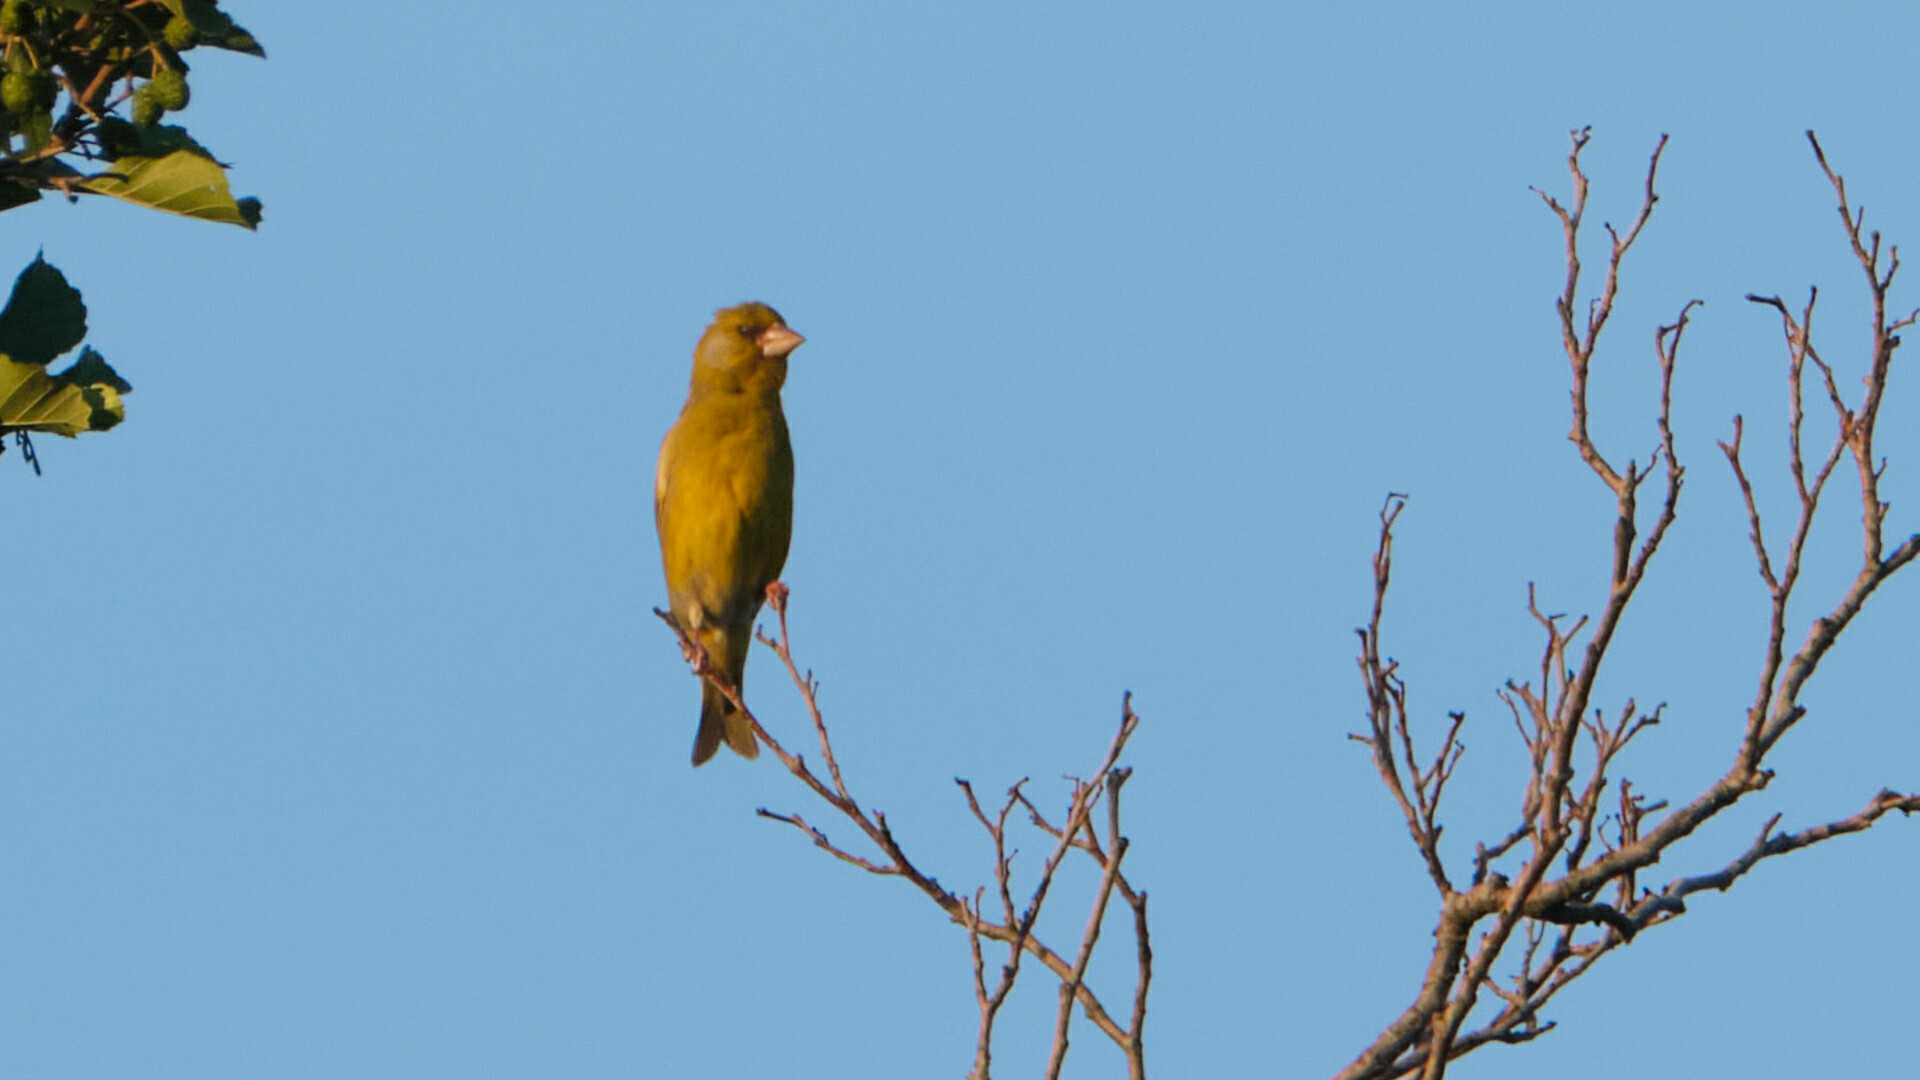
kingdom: Plantae
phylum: Tracheophyta
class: Liliopsida
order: Poales
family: Poaceae
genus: Chloris
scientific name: Chloris chloris
